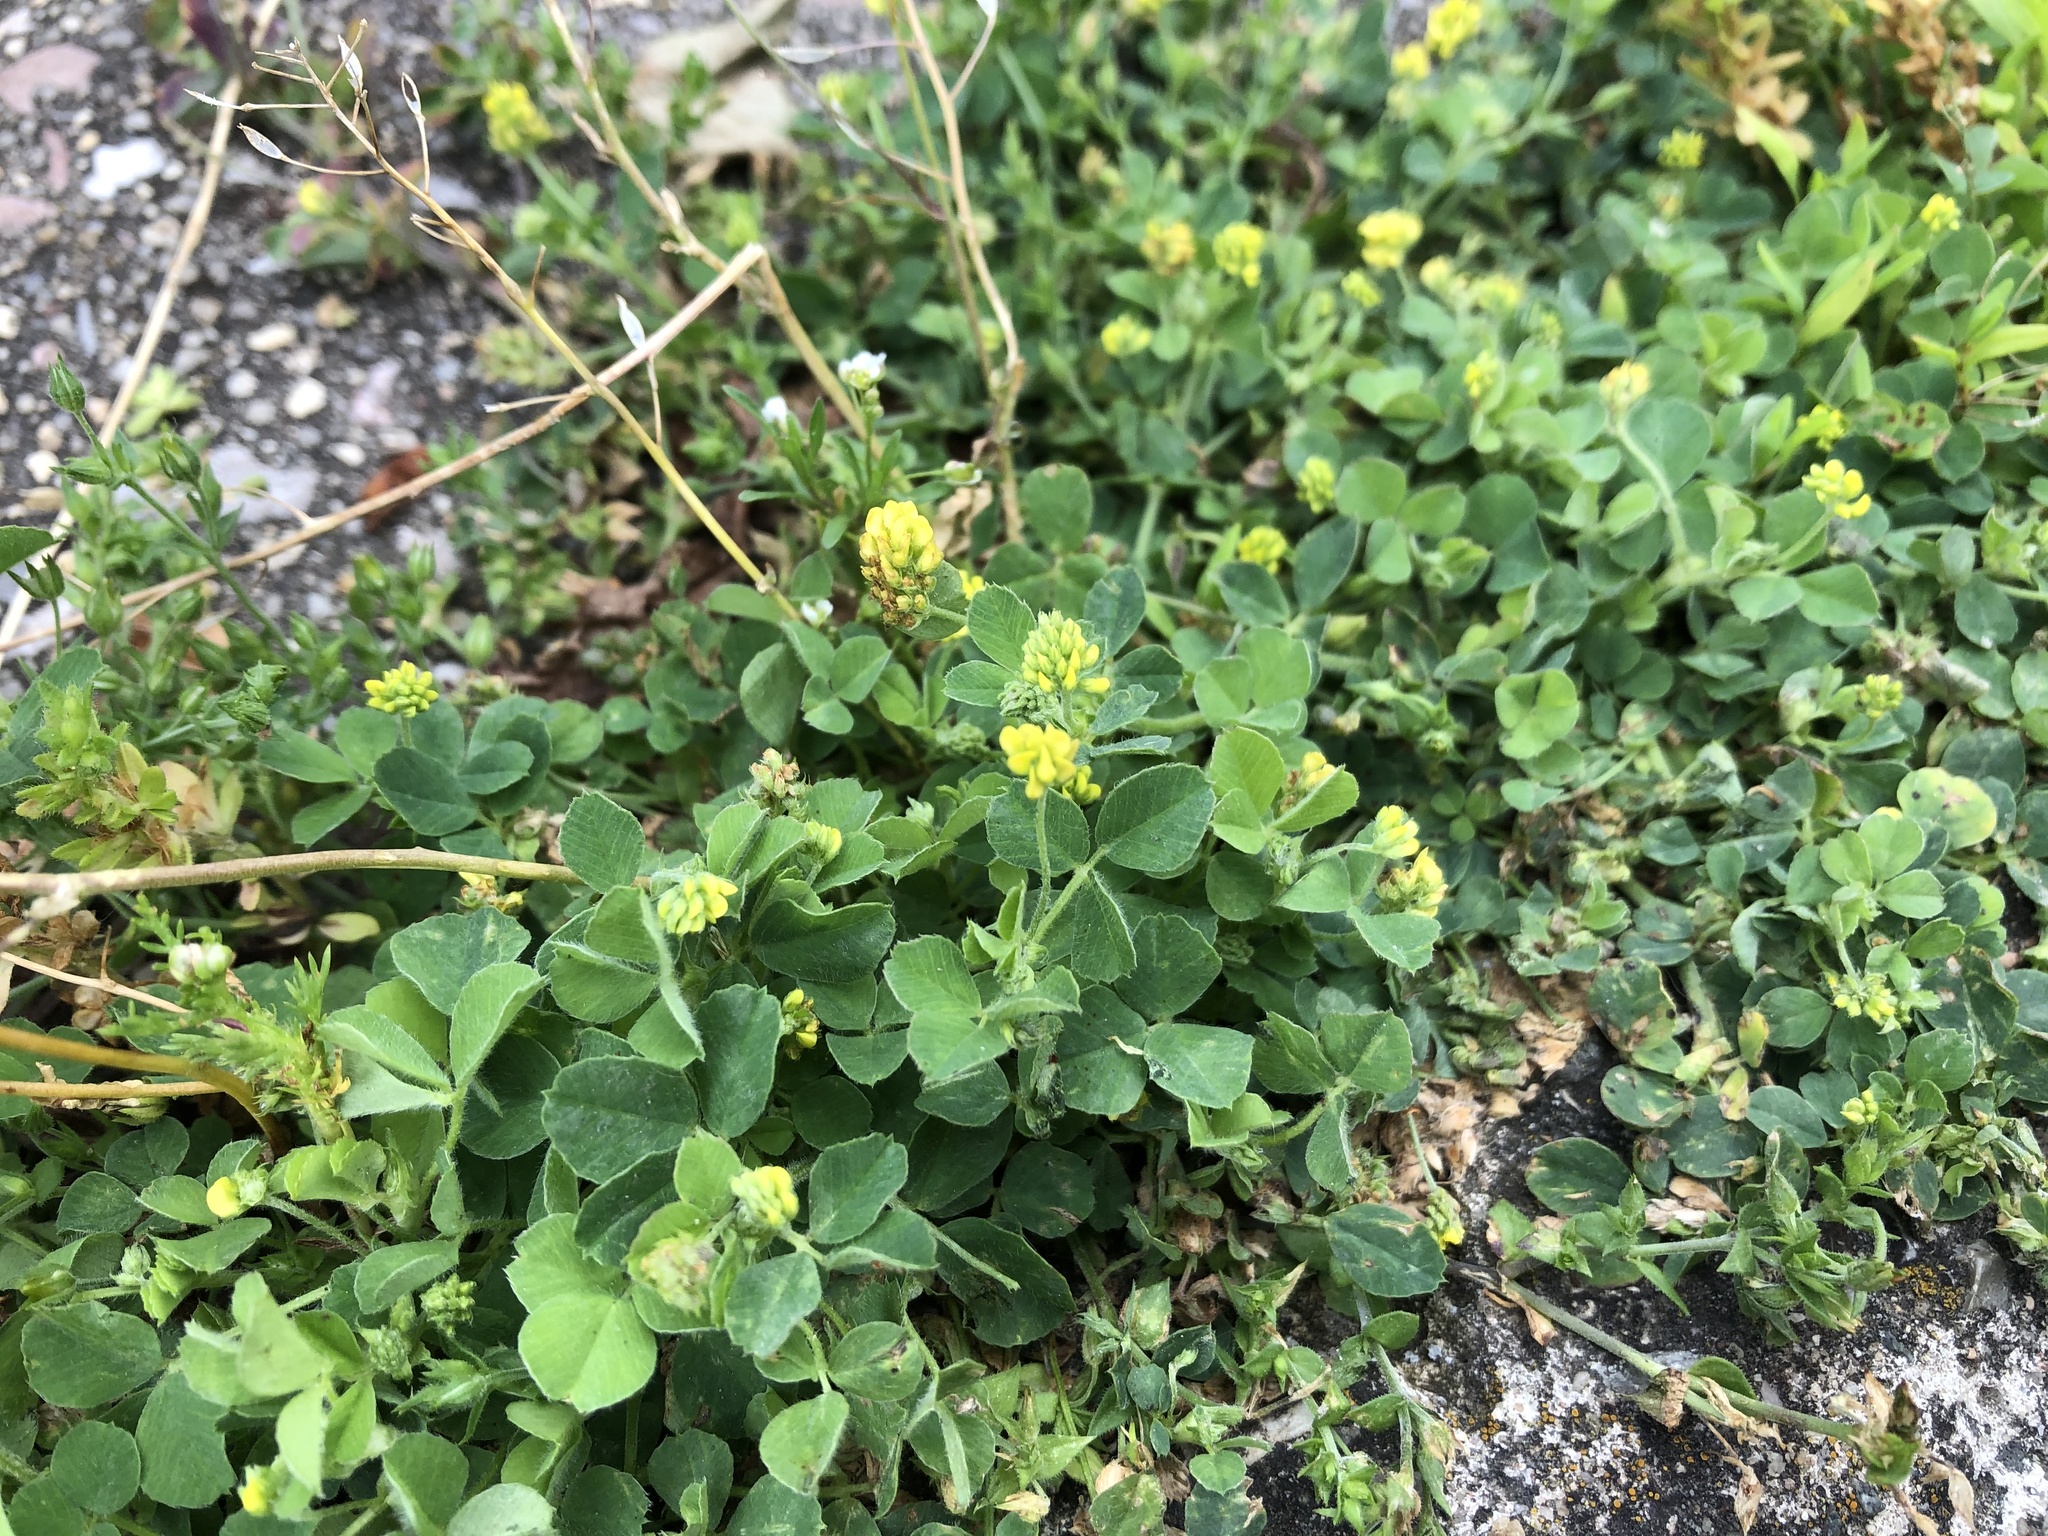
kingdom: Plantae
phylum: Tracheophyta
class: Magnoliopsida
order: Fabales
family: Fabaceae
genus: Medicago
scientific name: Medicago lupulina
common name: Black medick
